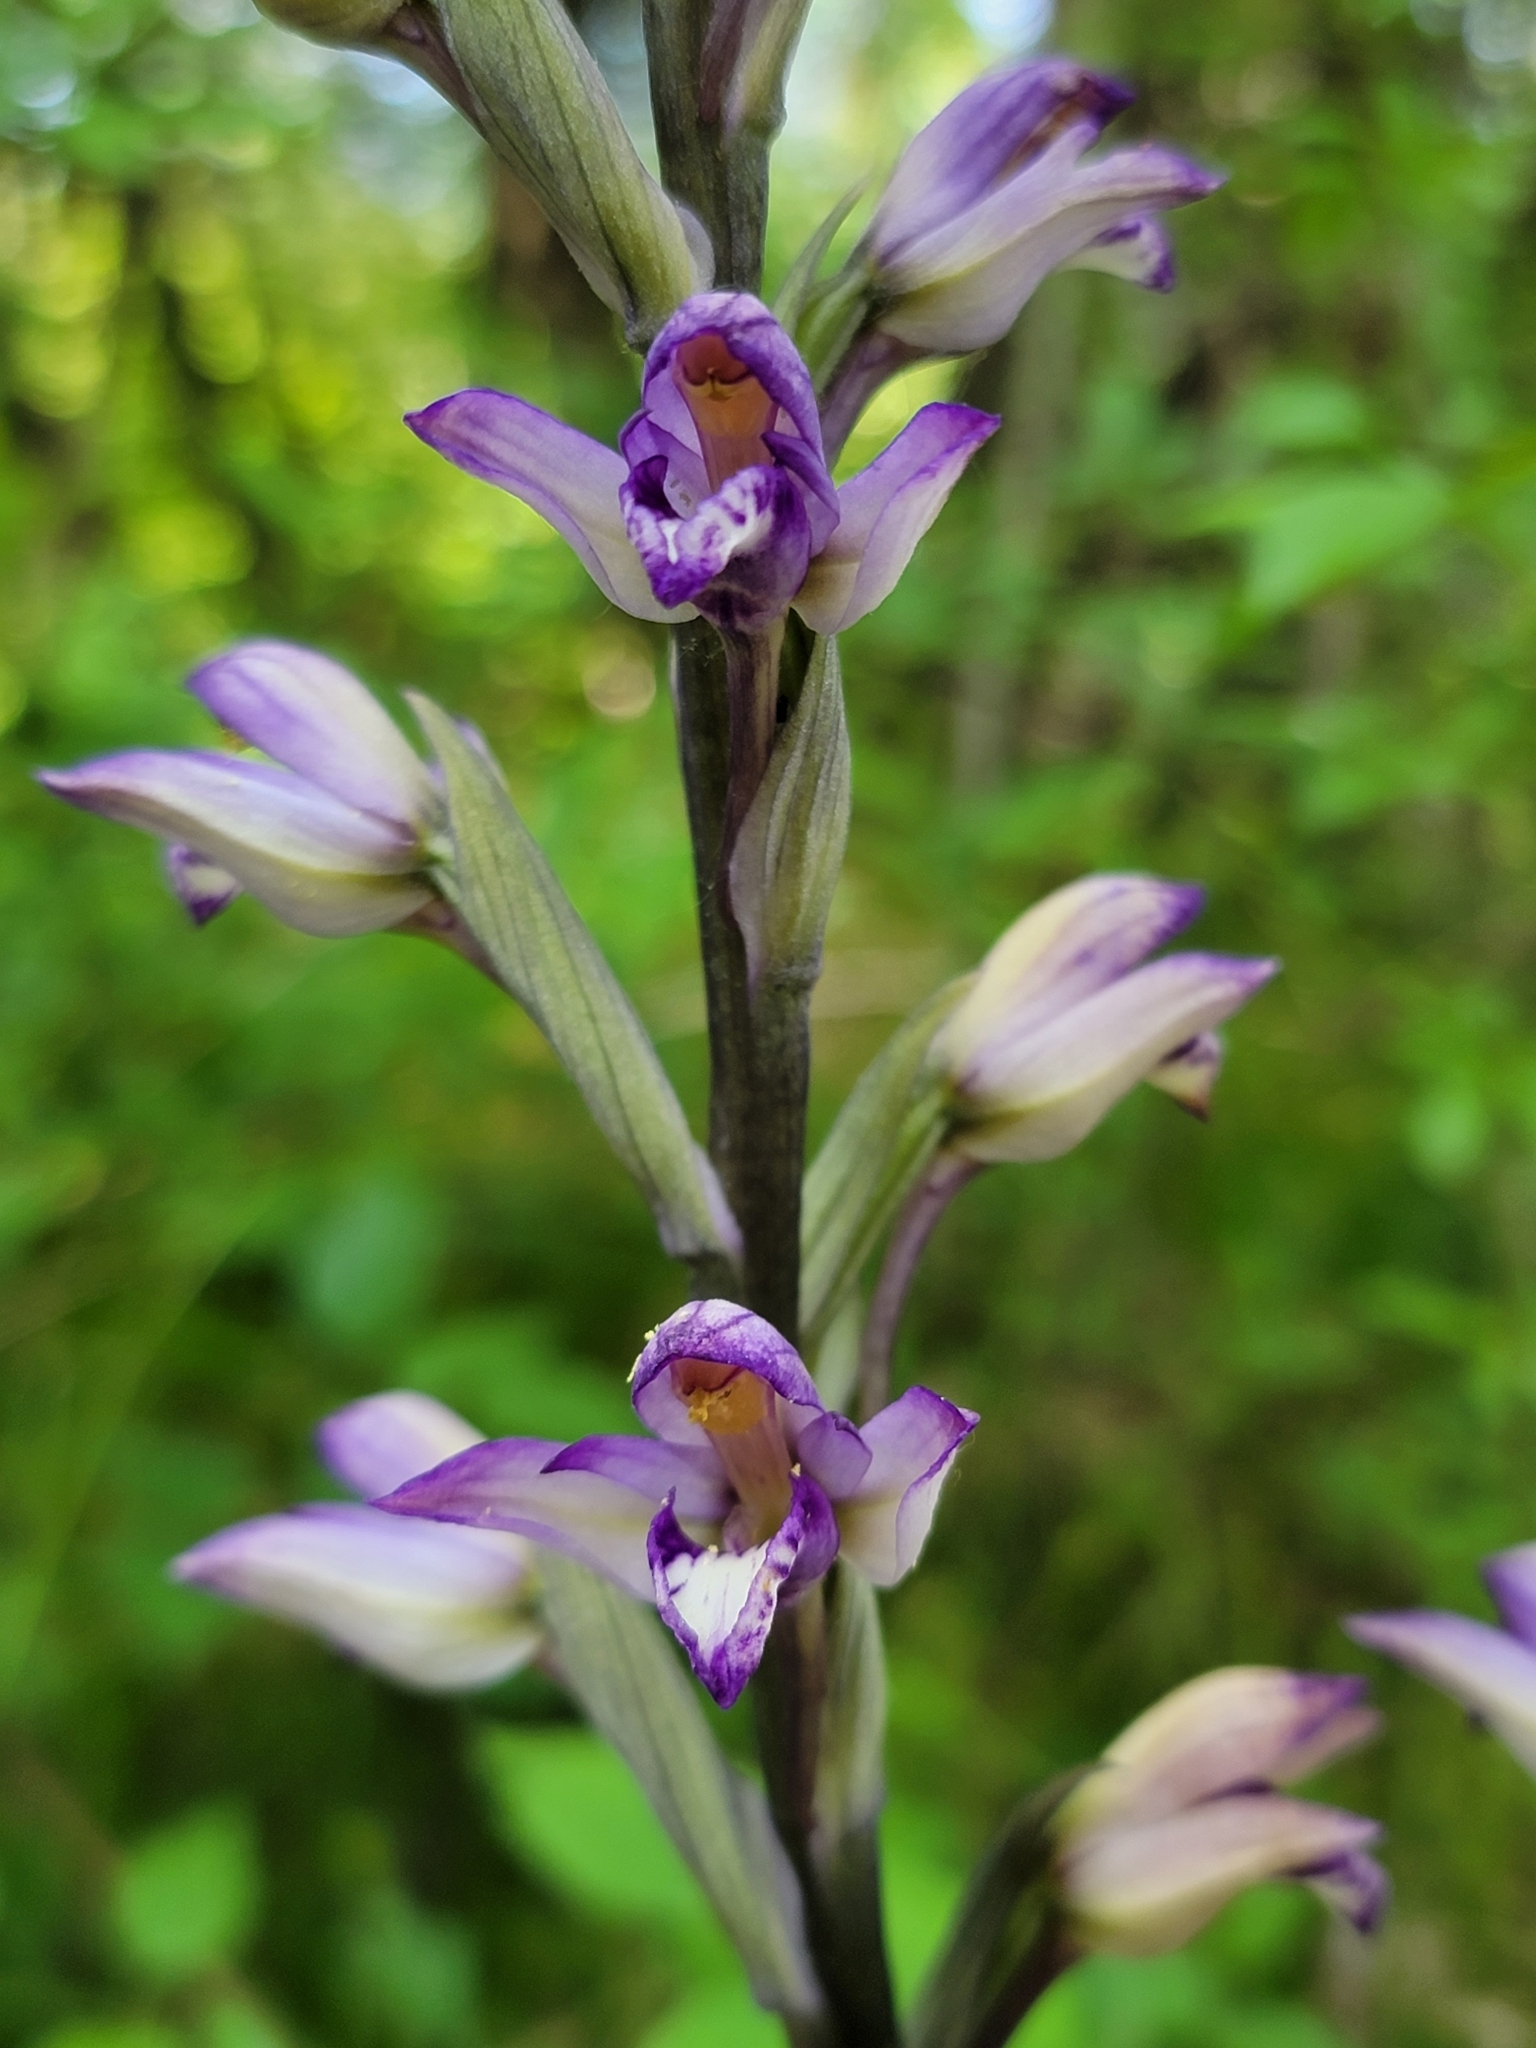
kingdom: Plantae
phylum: Tracheophyta
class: Liliopsida
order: Asparagales
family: Orchidaceae
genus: Limodorum
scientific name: Limodorum abortivum
